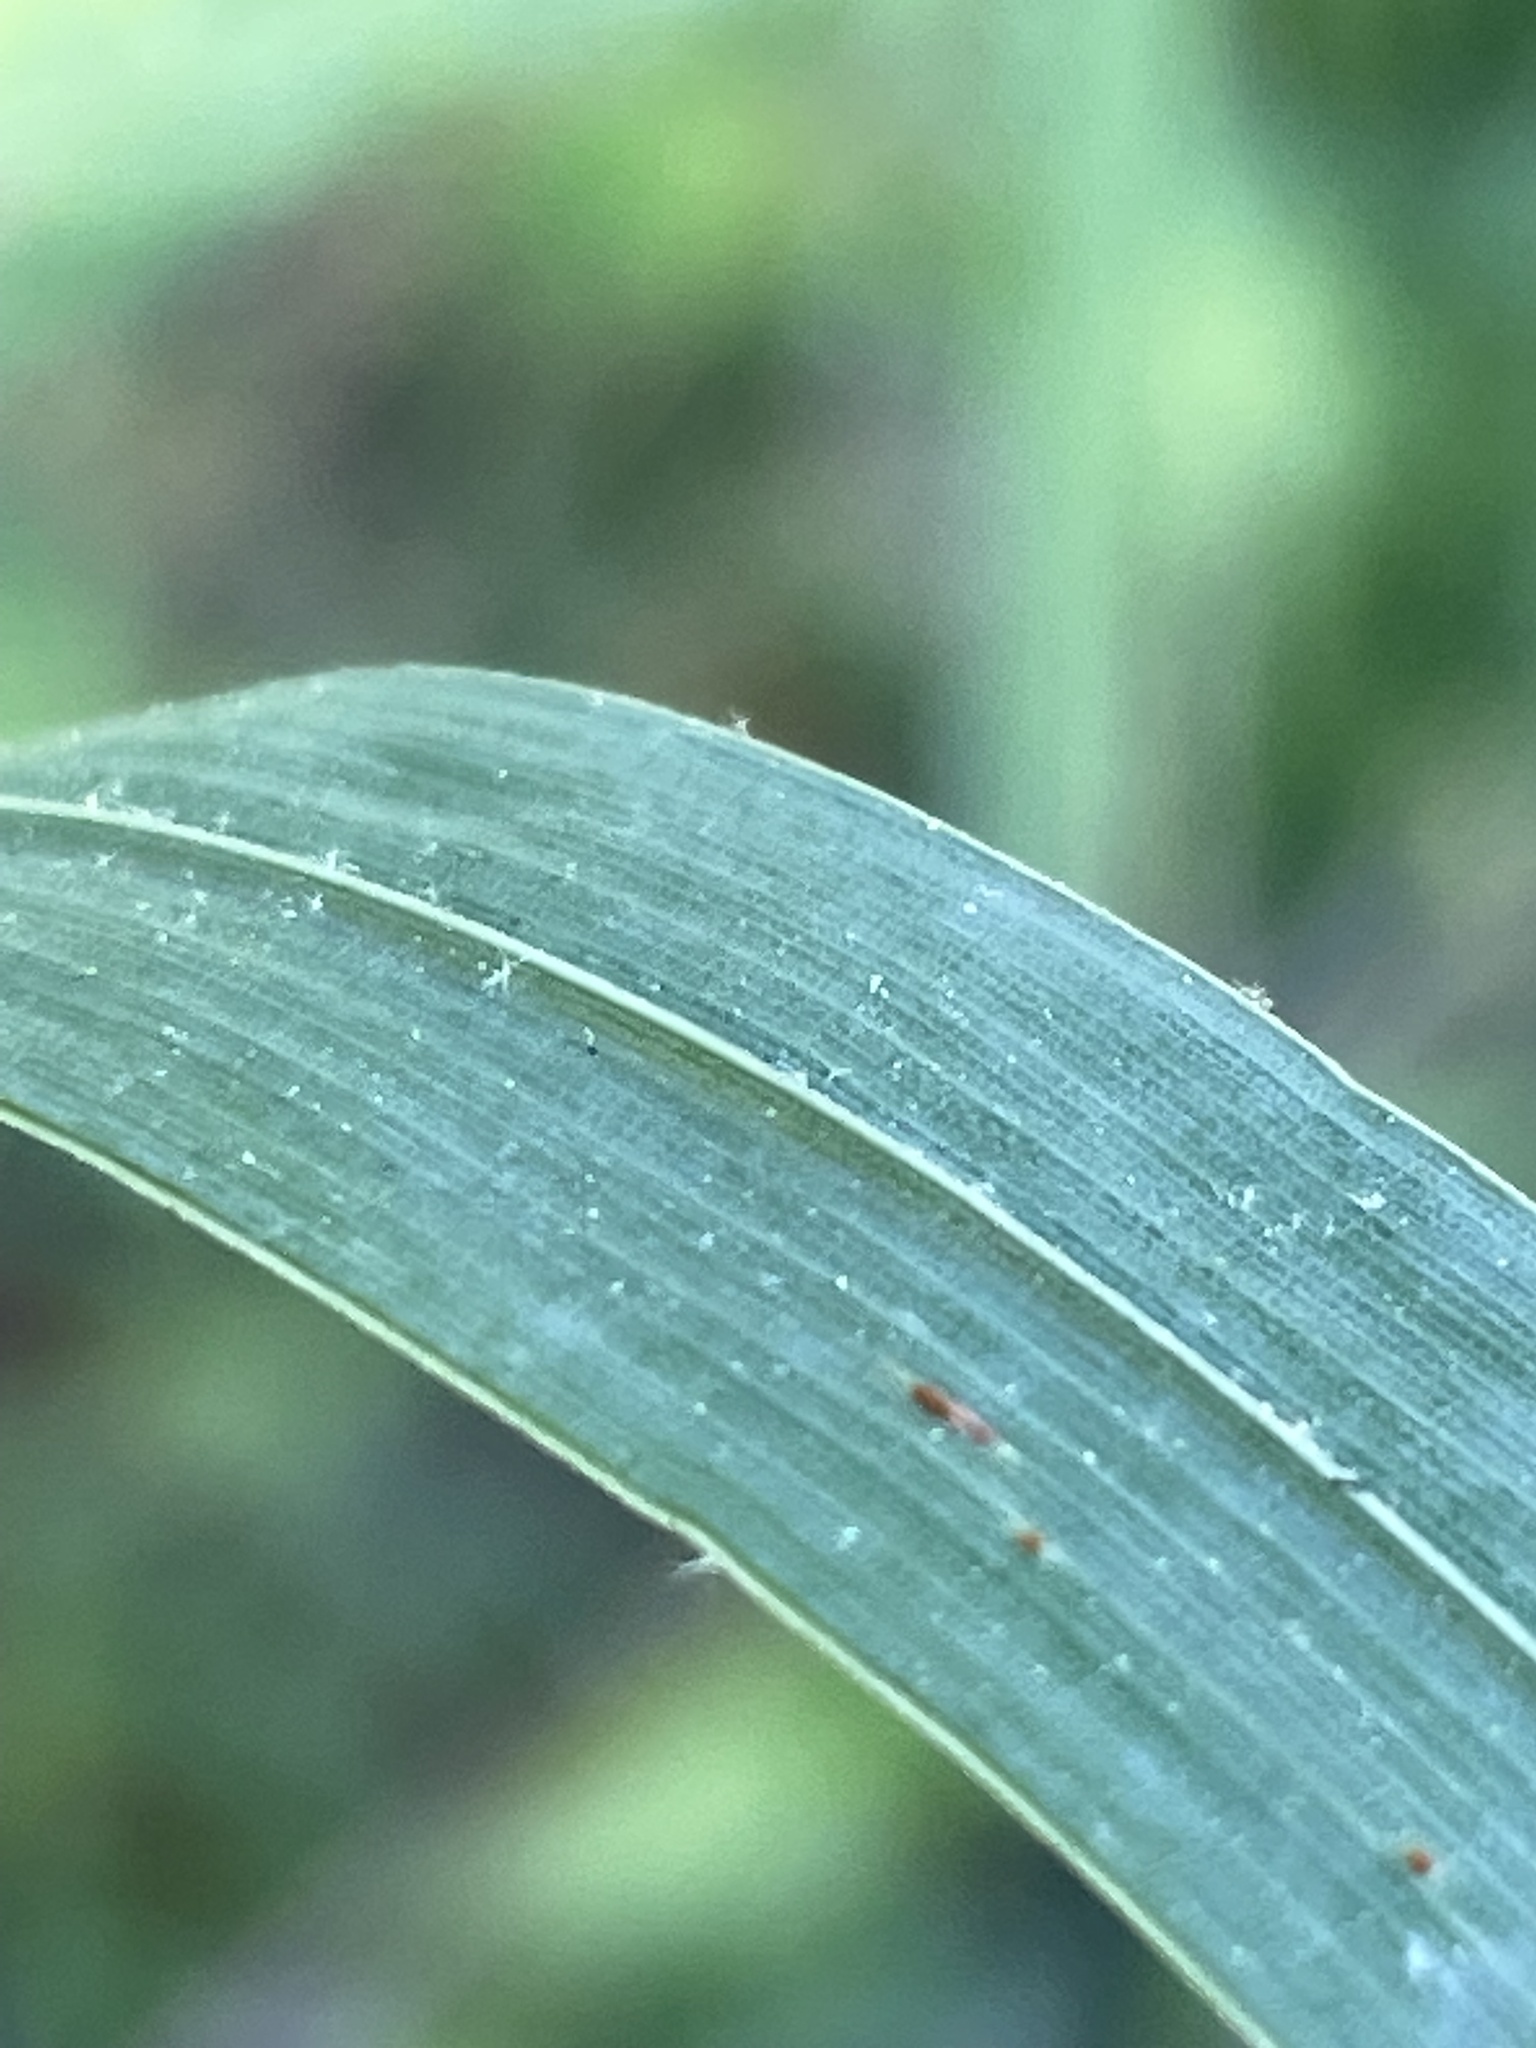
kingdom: Plantae
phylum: Tracheophyta
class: Liliopsida
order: Poales
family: Poaceae
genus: Dactylis
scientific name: Dactylis glomerata
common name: Orchardgrass
